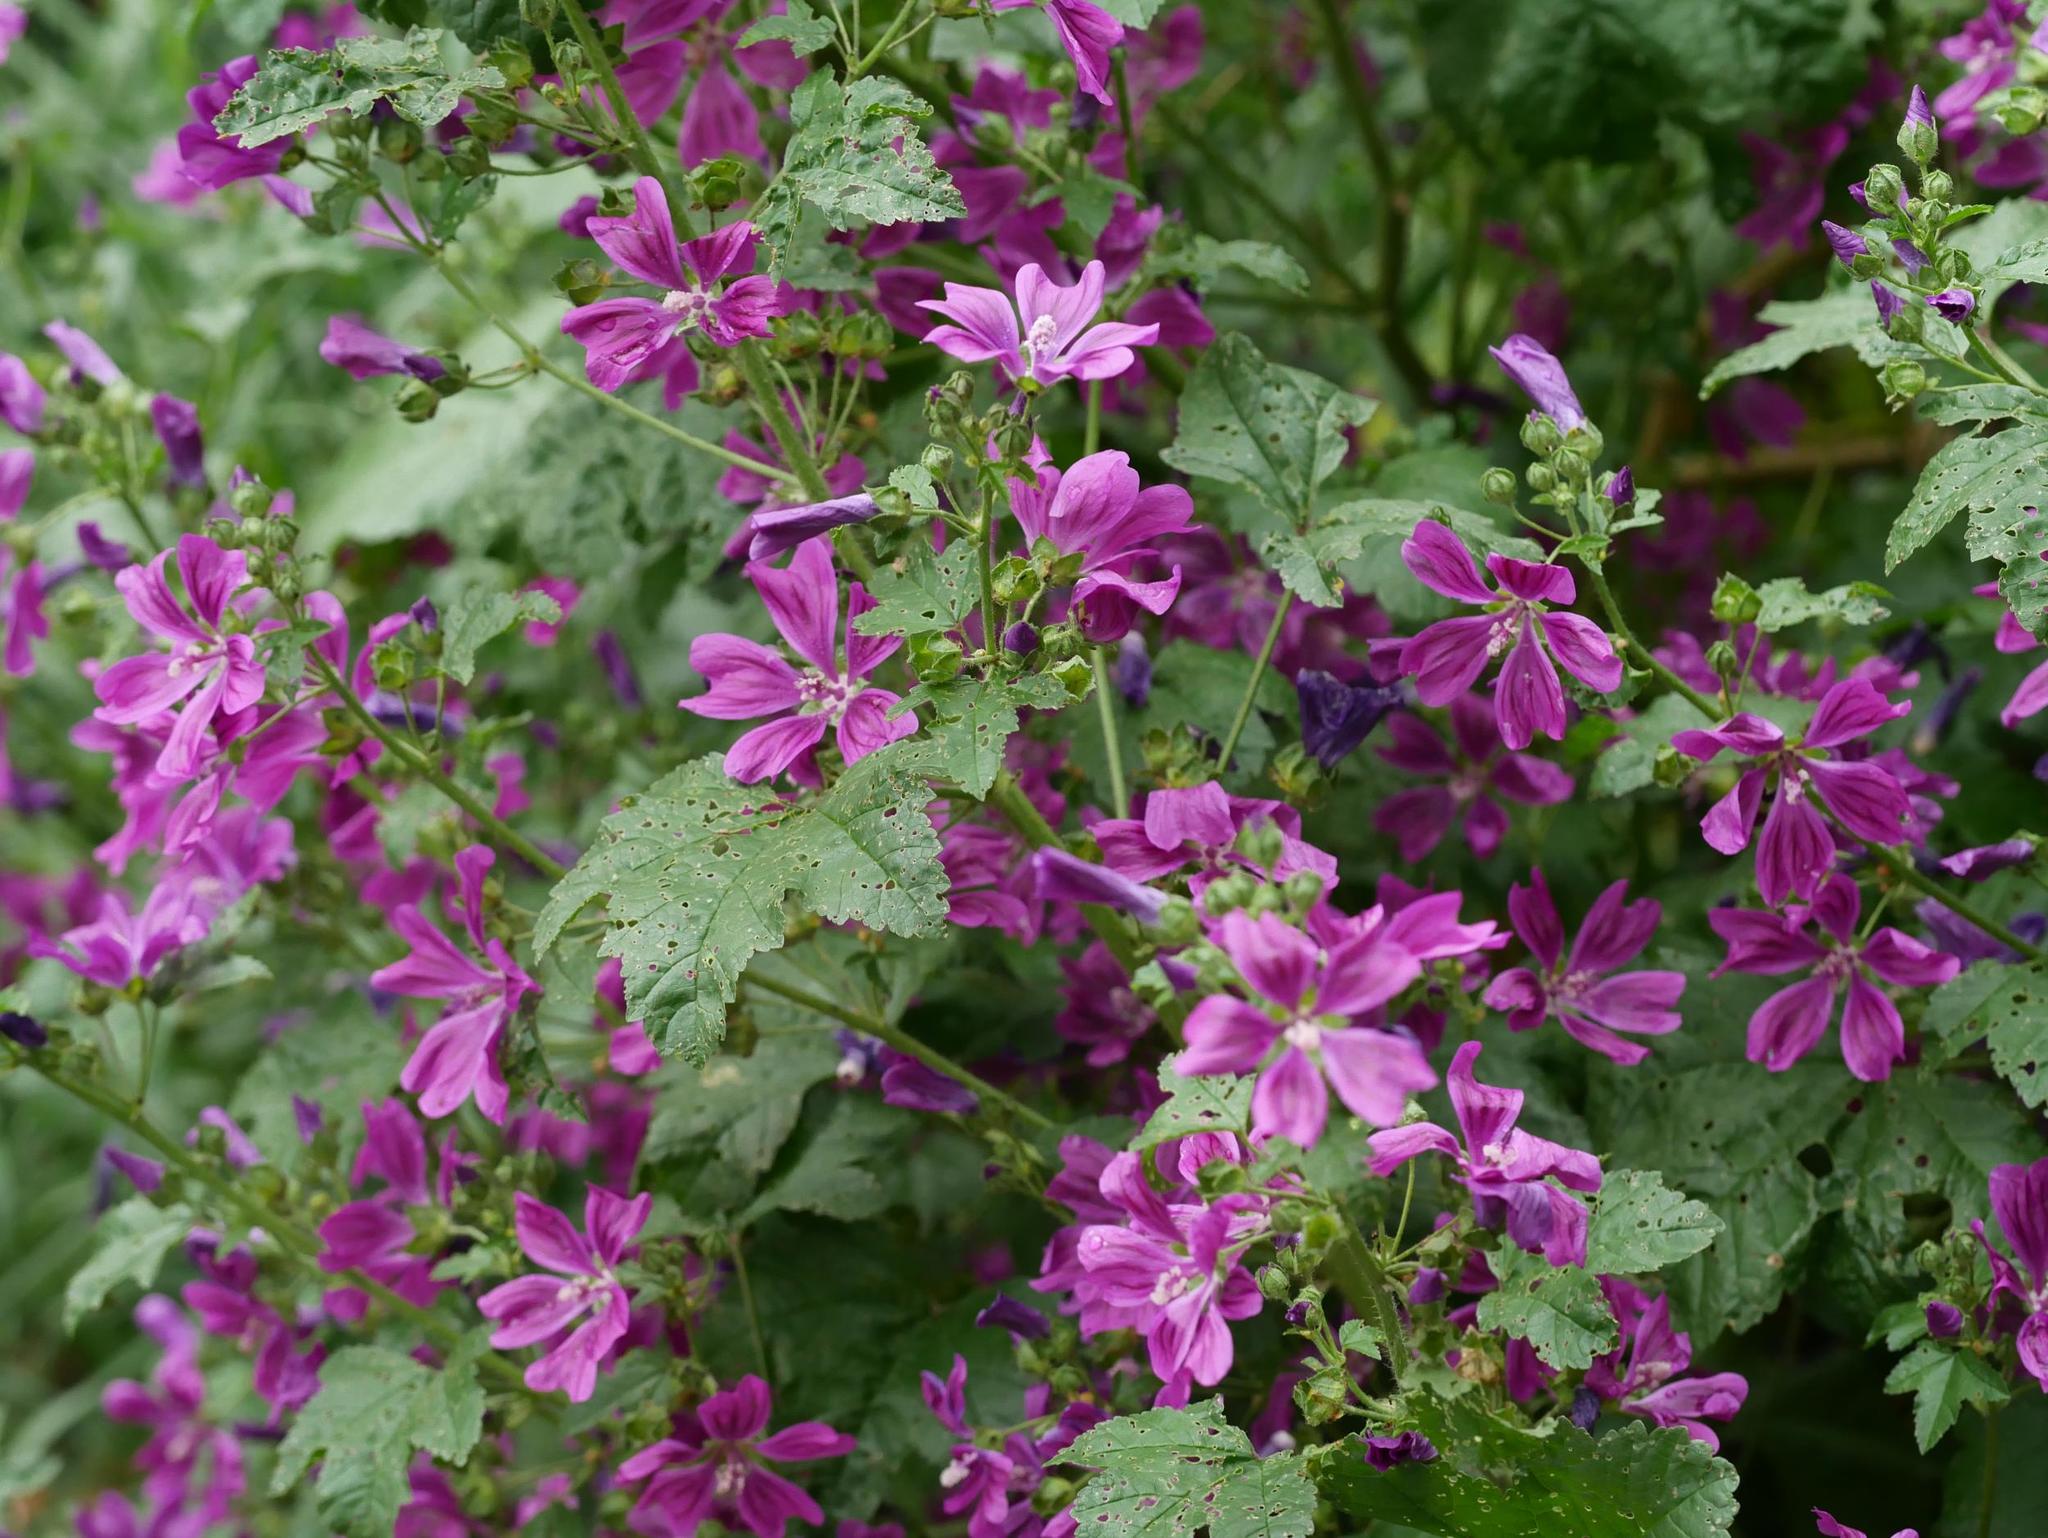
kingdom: Plantae
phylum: Tracheophyta
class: Magnoliopsida
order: Malvales
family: Malvaceae
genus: Malva
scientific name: Malva sylvestris
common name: Common mallow
